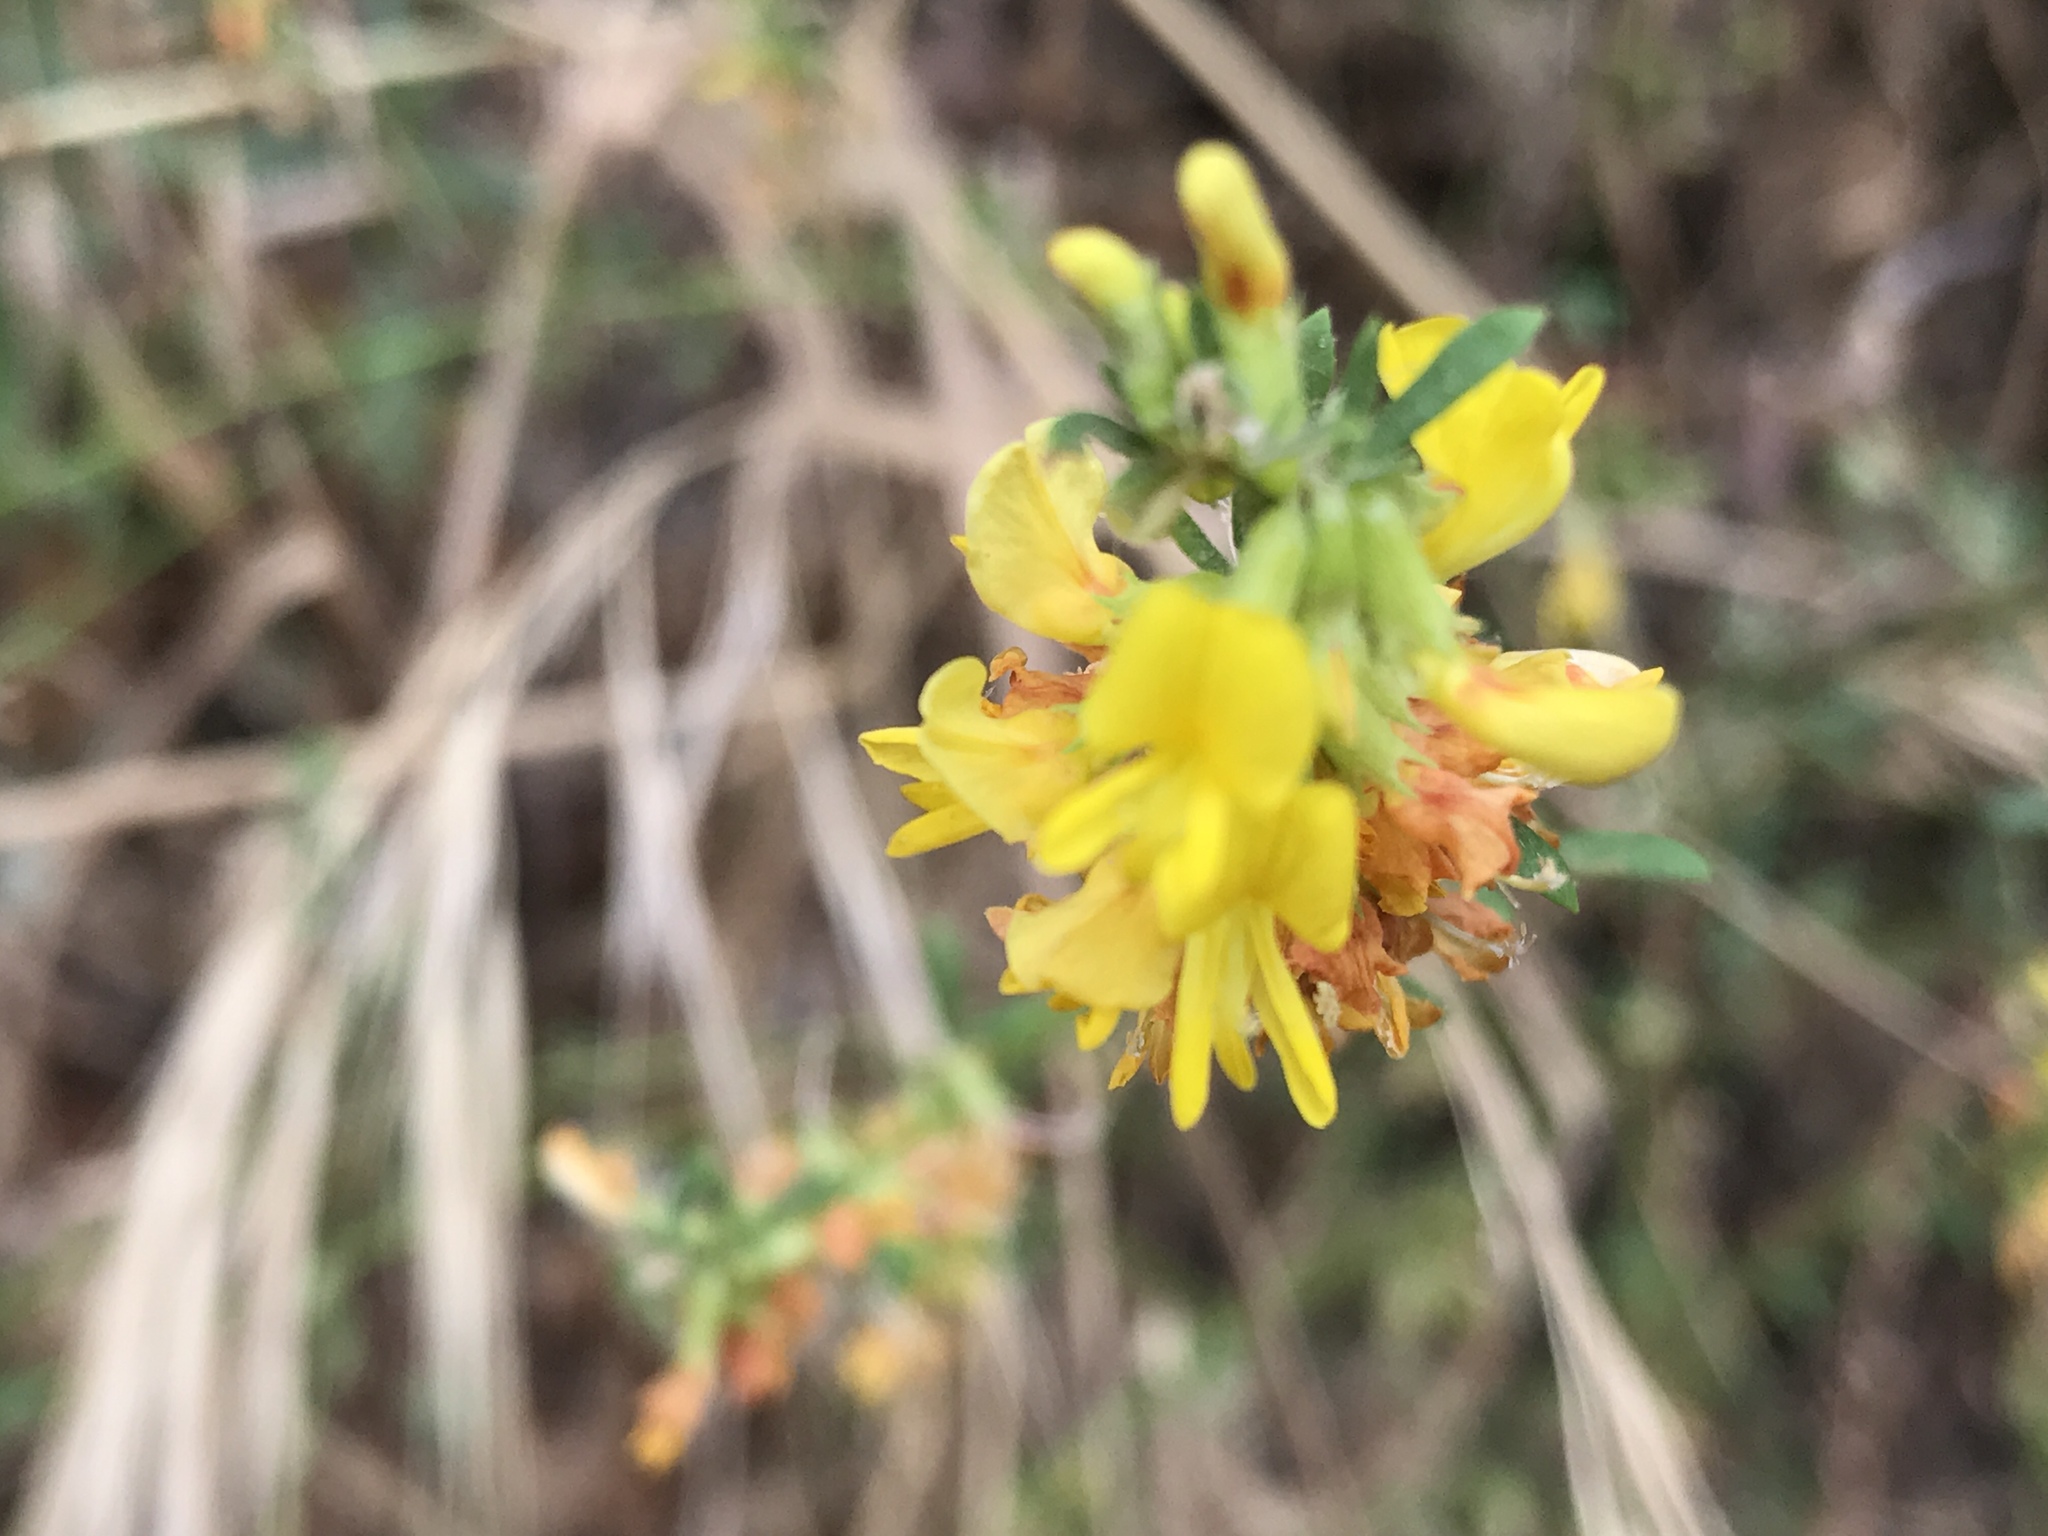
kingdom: Plantae
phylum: Tracheophyta
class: Magnoliopsida
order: Fabales
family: Fabaceae
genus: Acmispon
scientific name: Acmispon glaber
